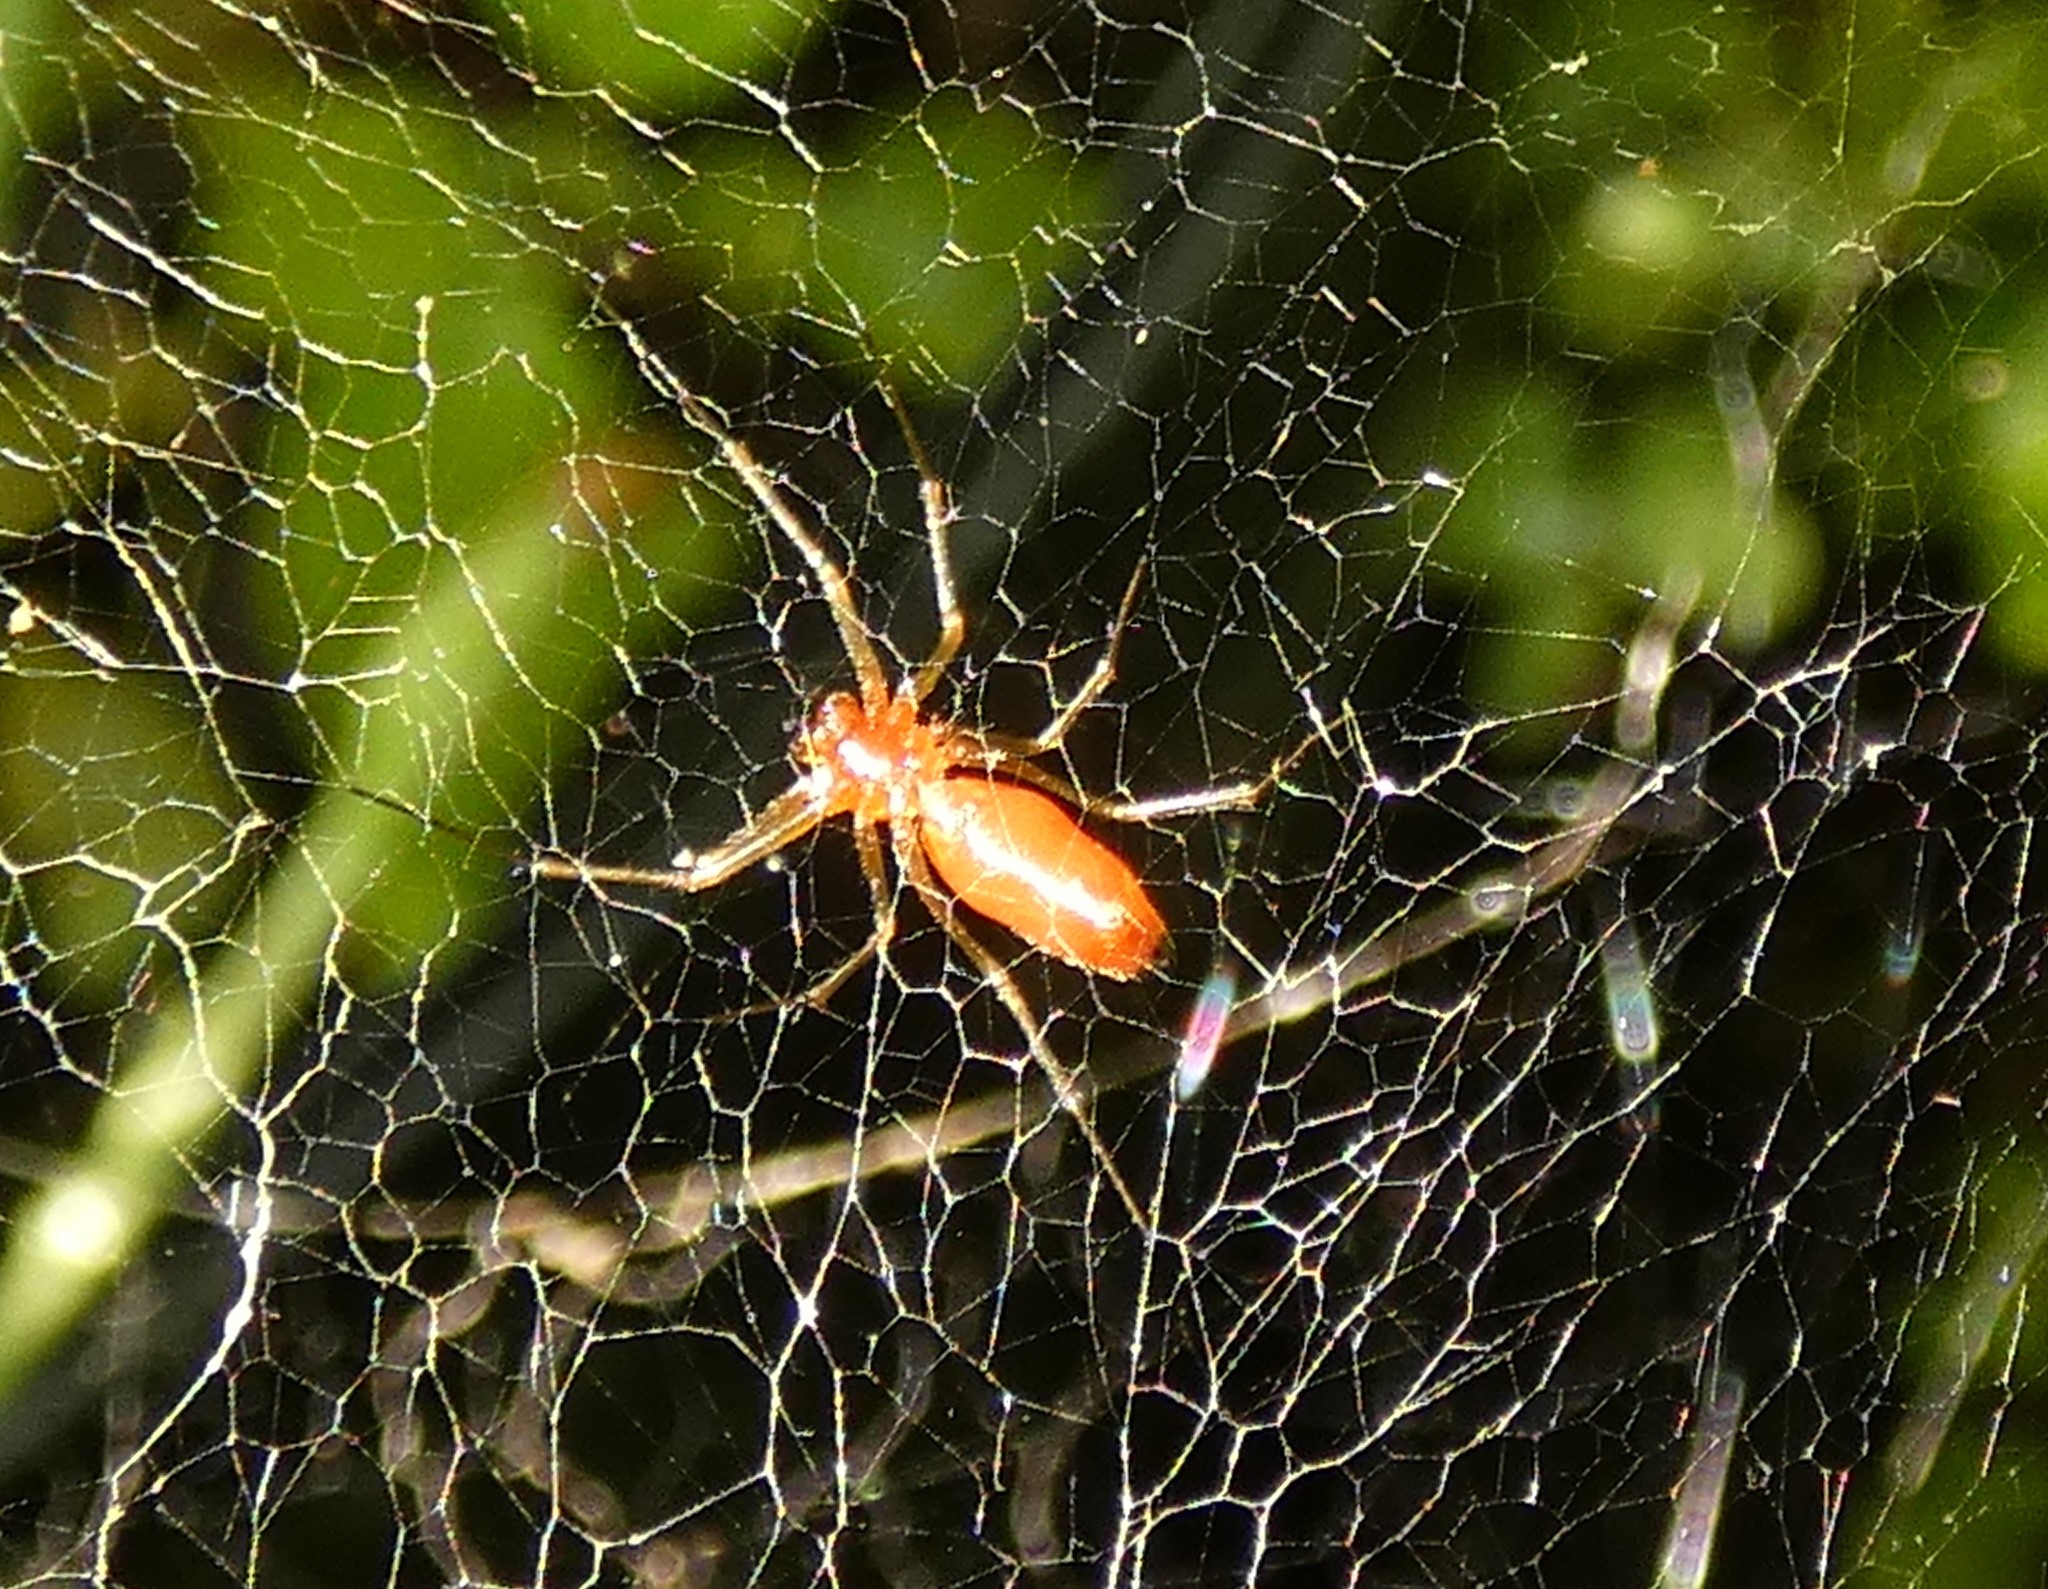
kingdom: Animalia
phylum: Arthropoda
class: Arachnida
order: Araneae
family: Linyphiidae
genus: Florinda
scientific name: Florinda coccinea
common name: Black-tailed red sheetweaver
